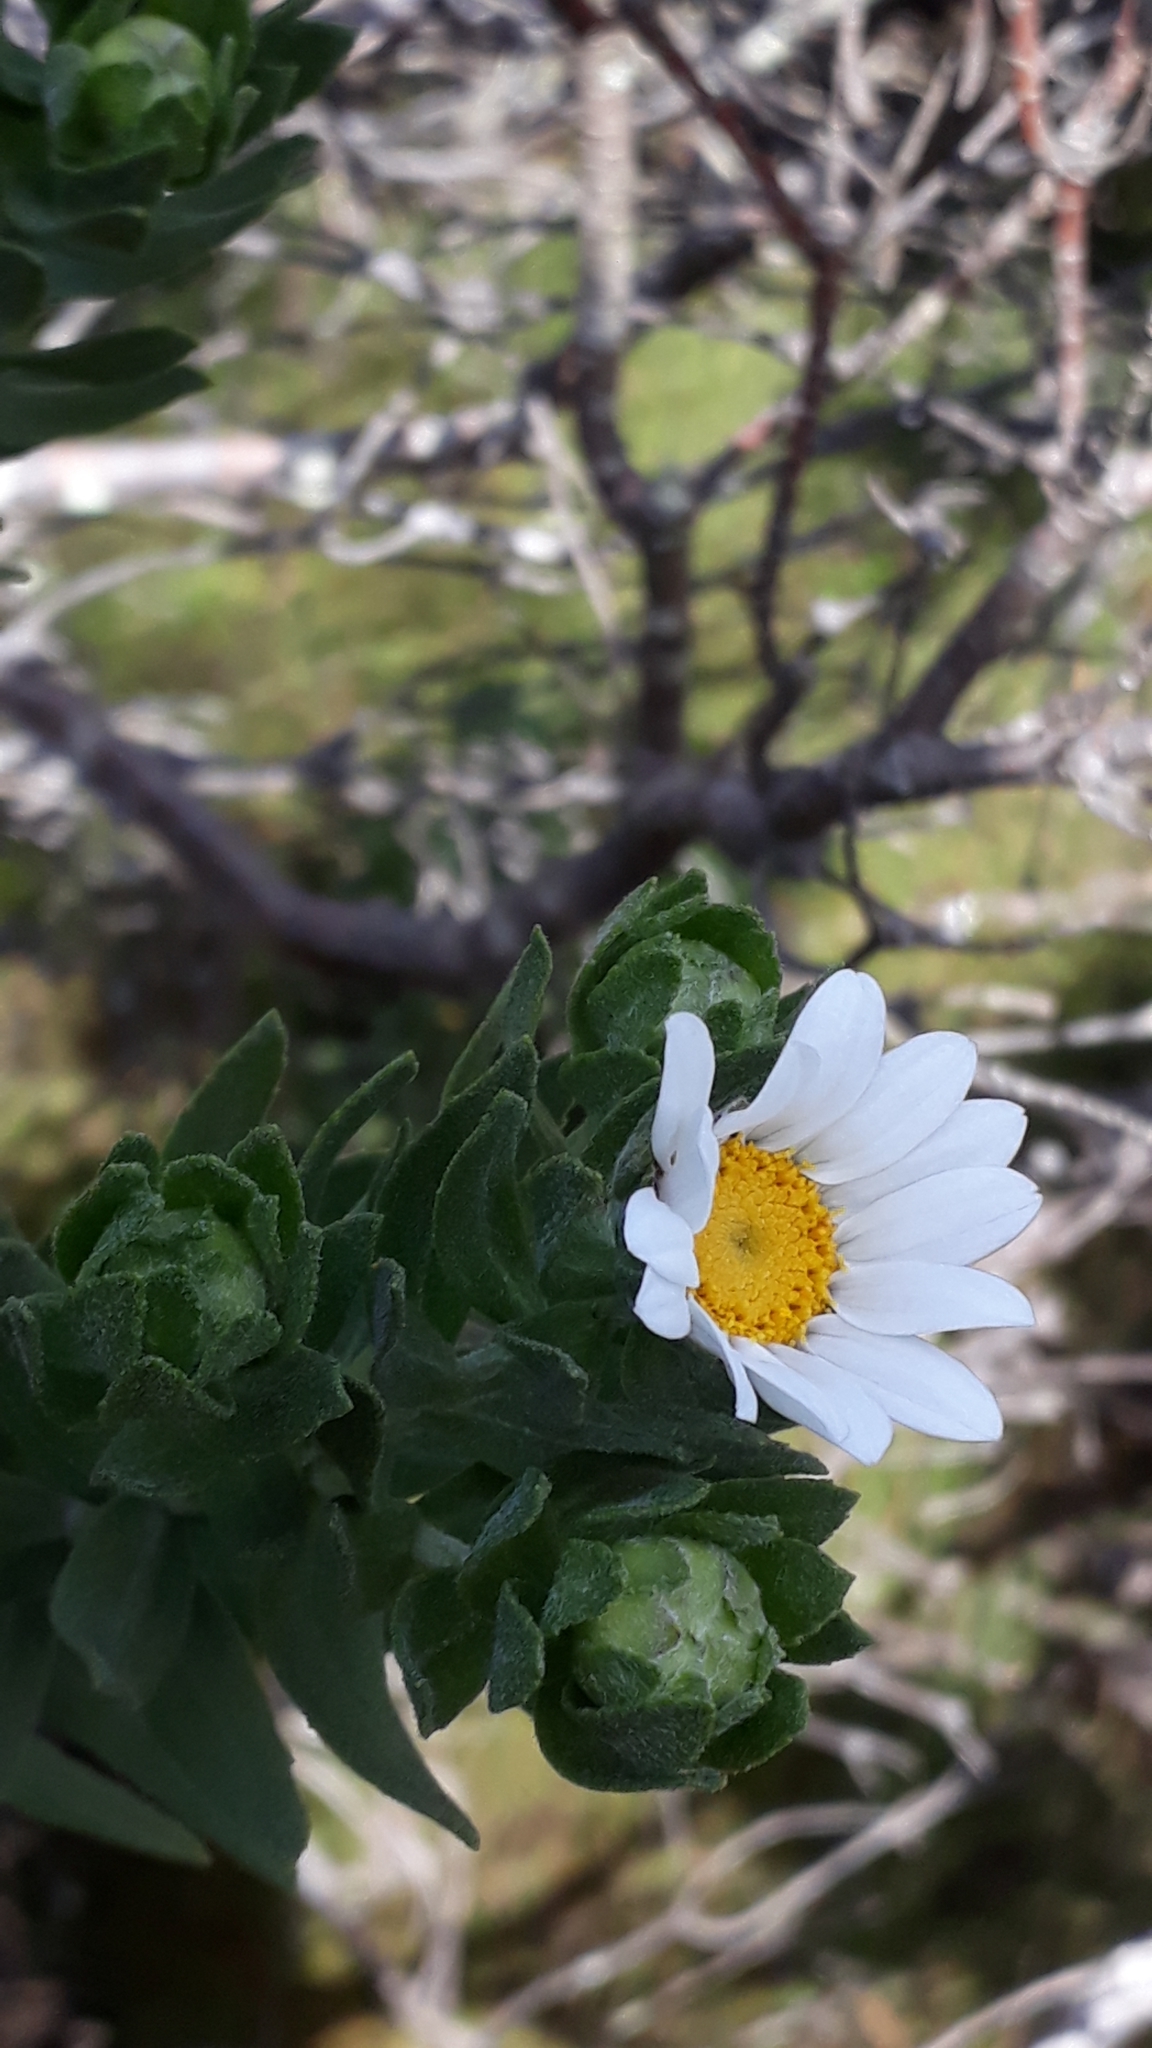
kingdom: Plantae
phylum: Tracheophyta
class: Magnoliopsida
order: Asterales
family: Asteraceae
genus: Osmitopsis
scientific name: Osmitopsis asteriscoides
